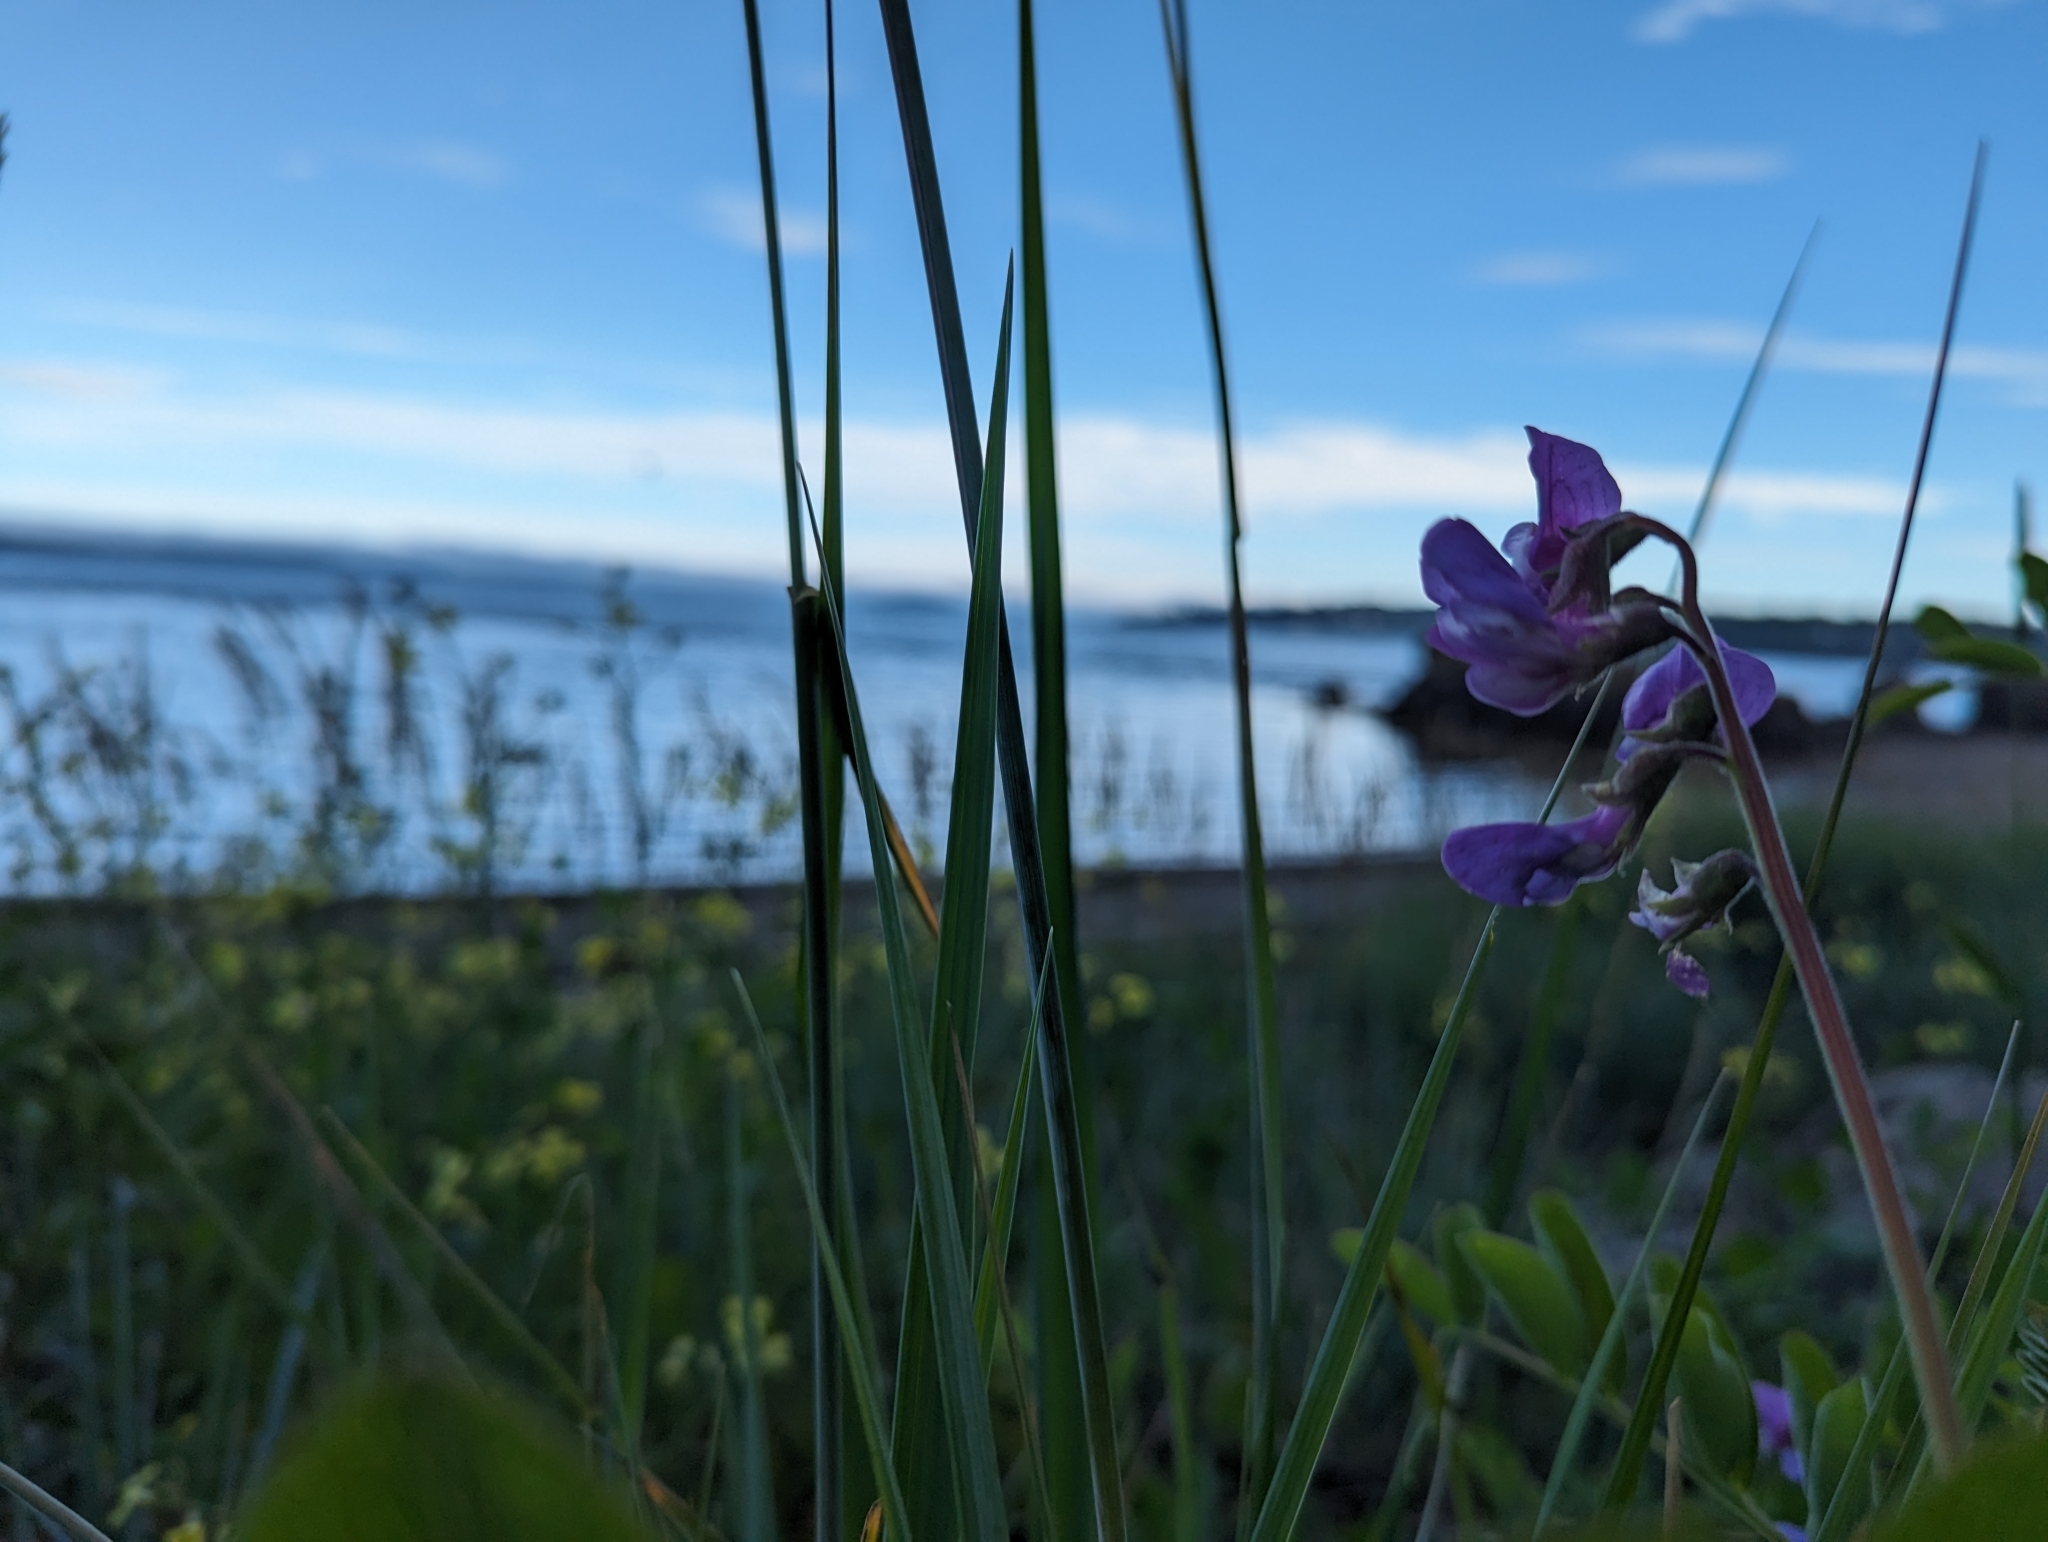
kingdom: Plantae
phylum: Tracheophyta
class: Magnoliopsida
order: Fabales
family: Fabaceae
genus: Lathyrus
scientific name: Lathyrus japonicus
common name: Sea pea
